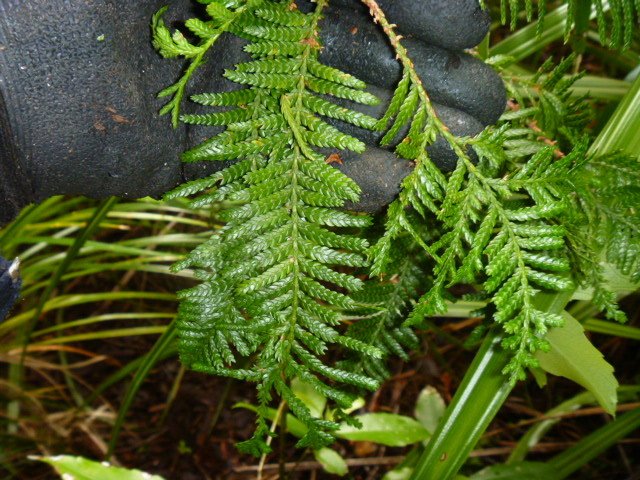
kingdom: Plantae
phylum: Tracheophyta
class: Pinopsida
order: Pinales
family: Cupressaceae
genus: Libocedrus
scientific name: Libocedrus plumosa
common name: New zealand cedar
